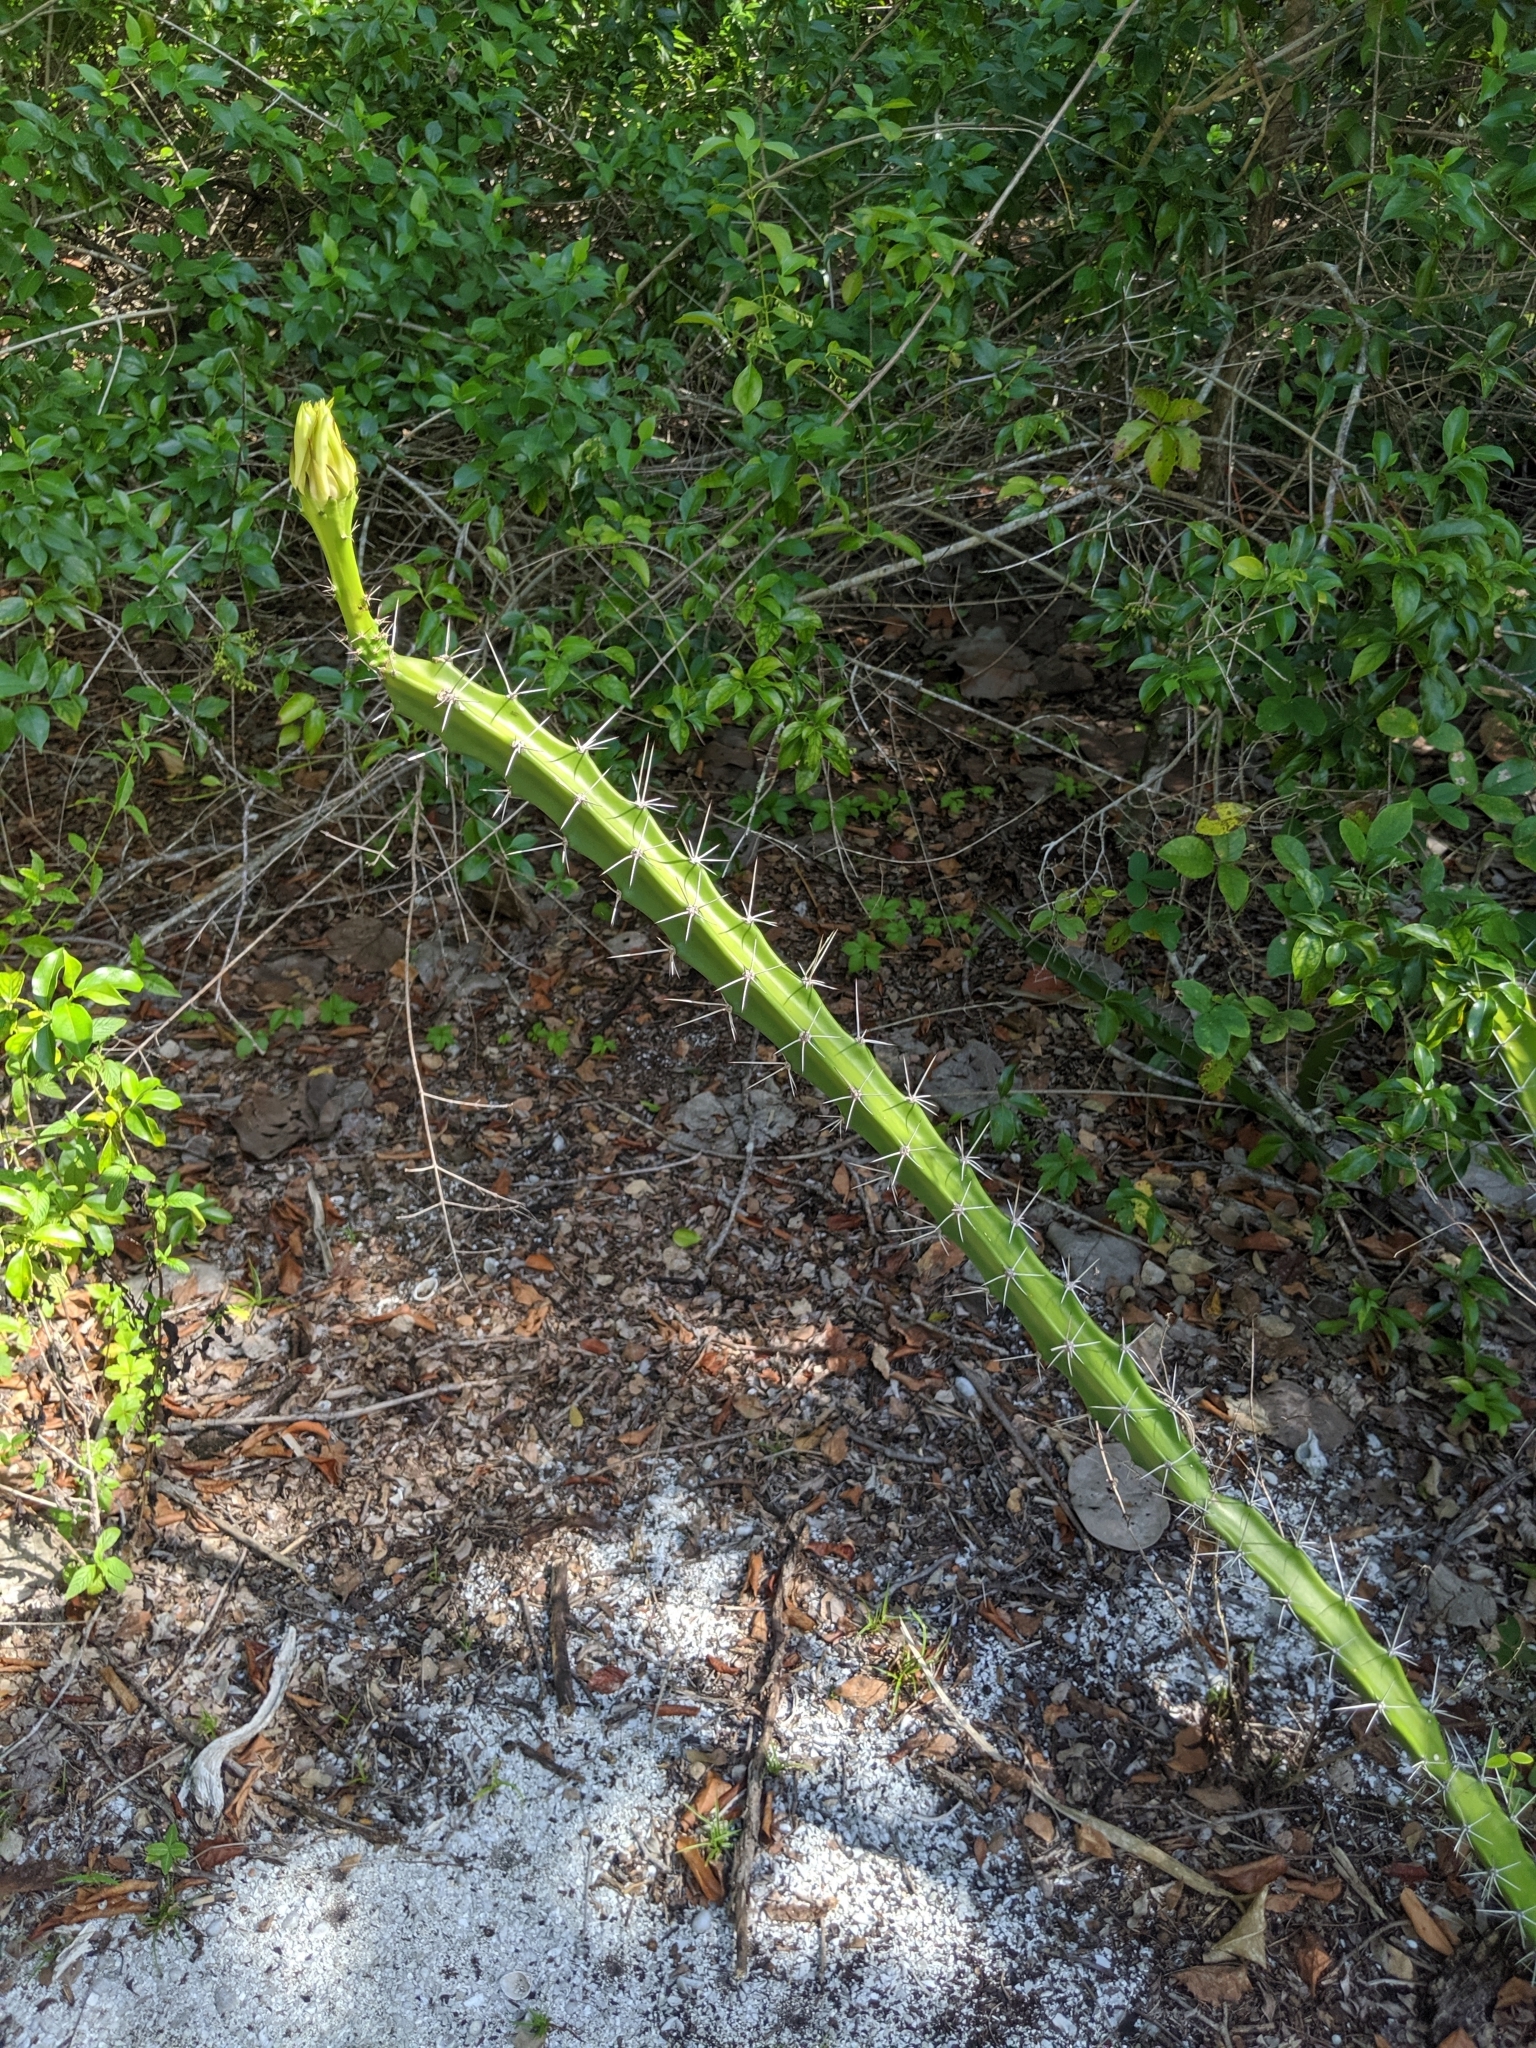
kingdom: Plantae
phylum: Tracheophyta
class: Magnoliopsida
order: Caryophyllales
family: Cactaceae
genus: Acanthocereus
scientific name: Acanthocereus tetragonus
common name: Triangle cactus
